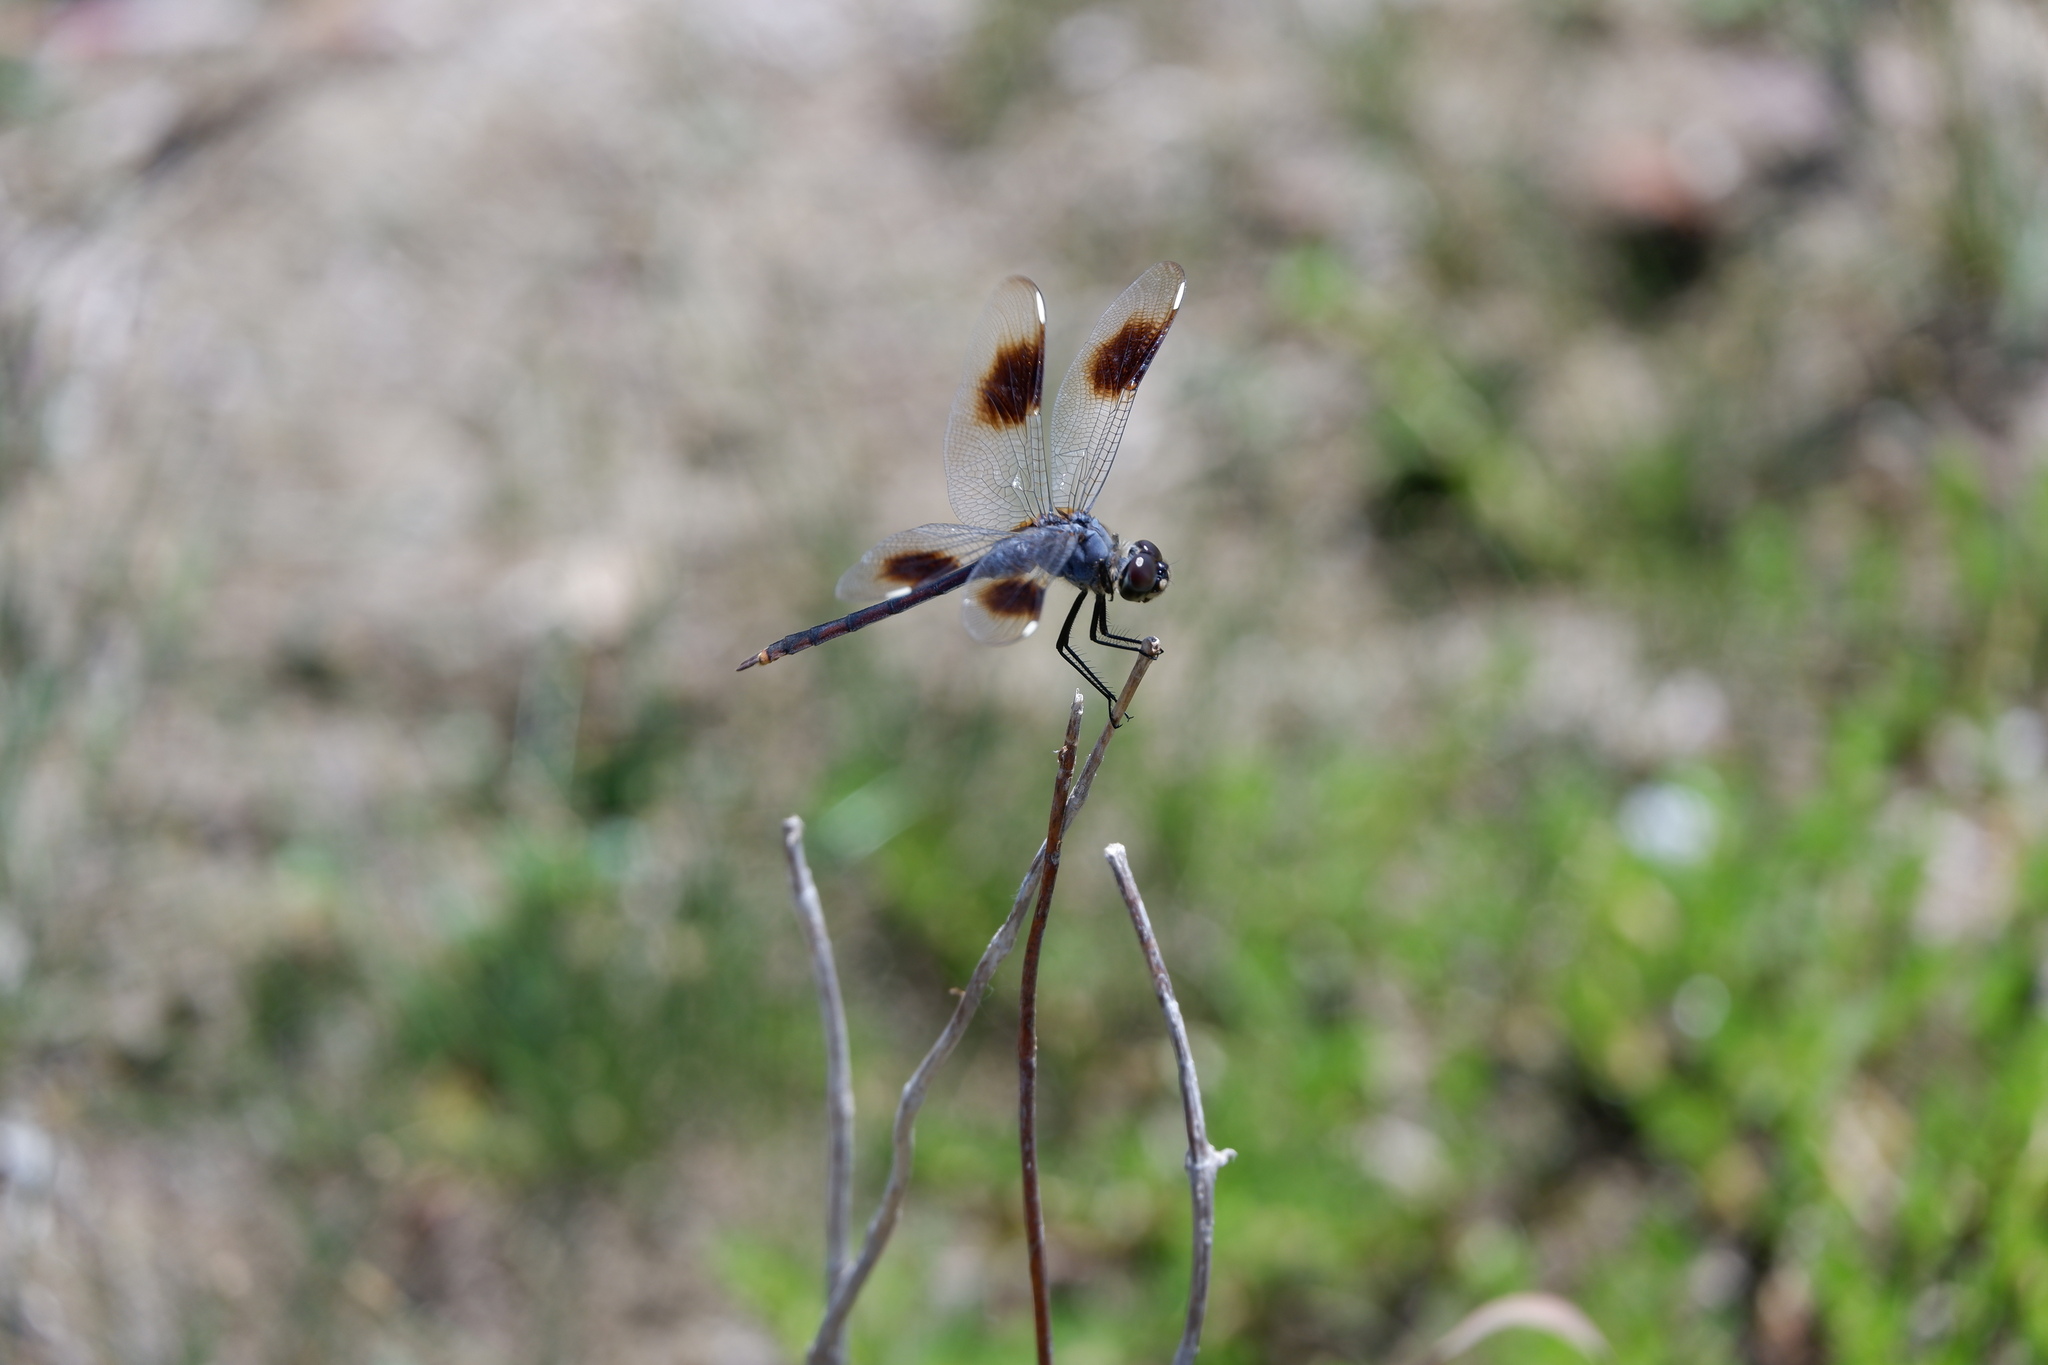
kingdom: Animalia
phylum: Arthropoda
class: Insecta
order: Odonata
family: Libellulidae
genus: Brachymesia
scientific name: Brachymesia gravida
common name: Four-spotted pennant
